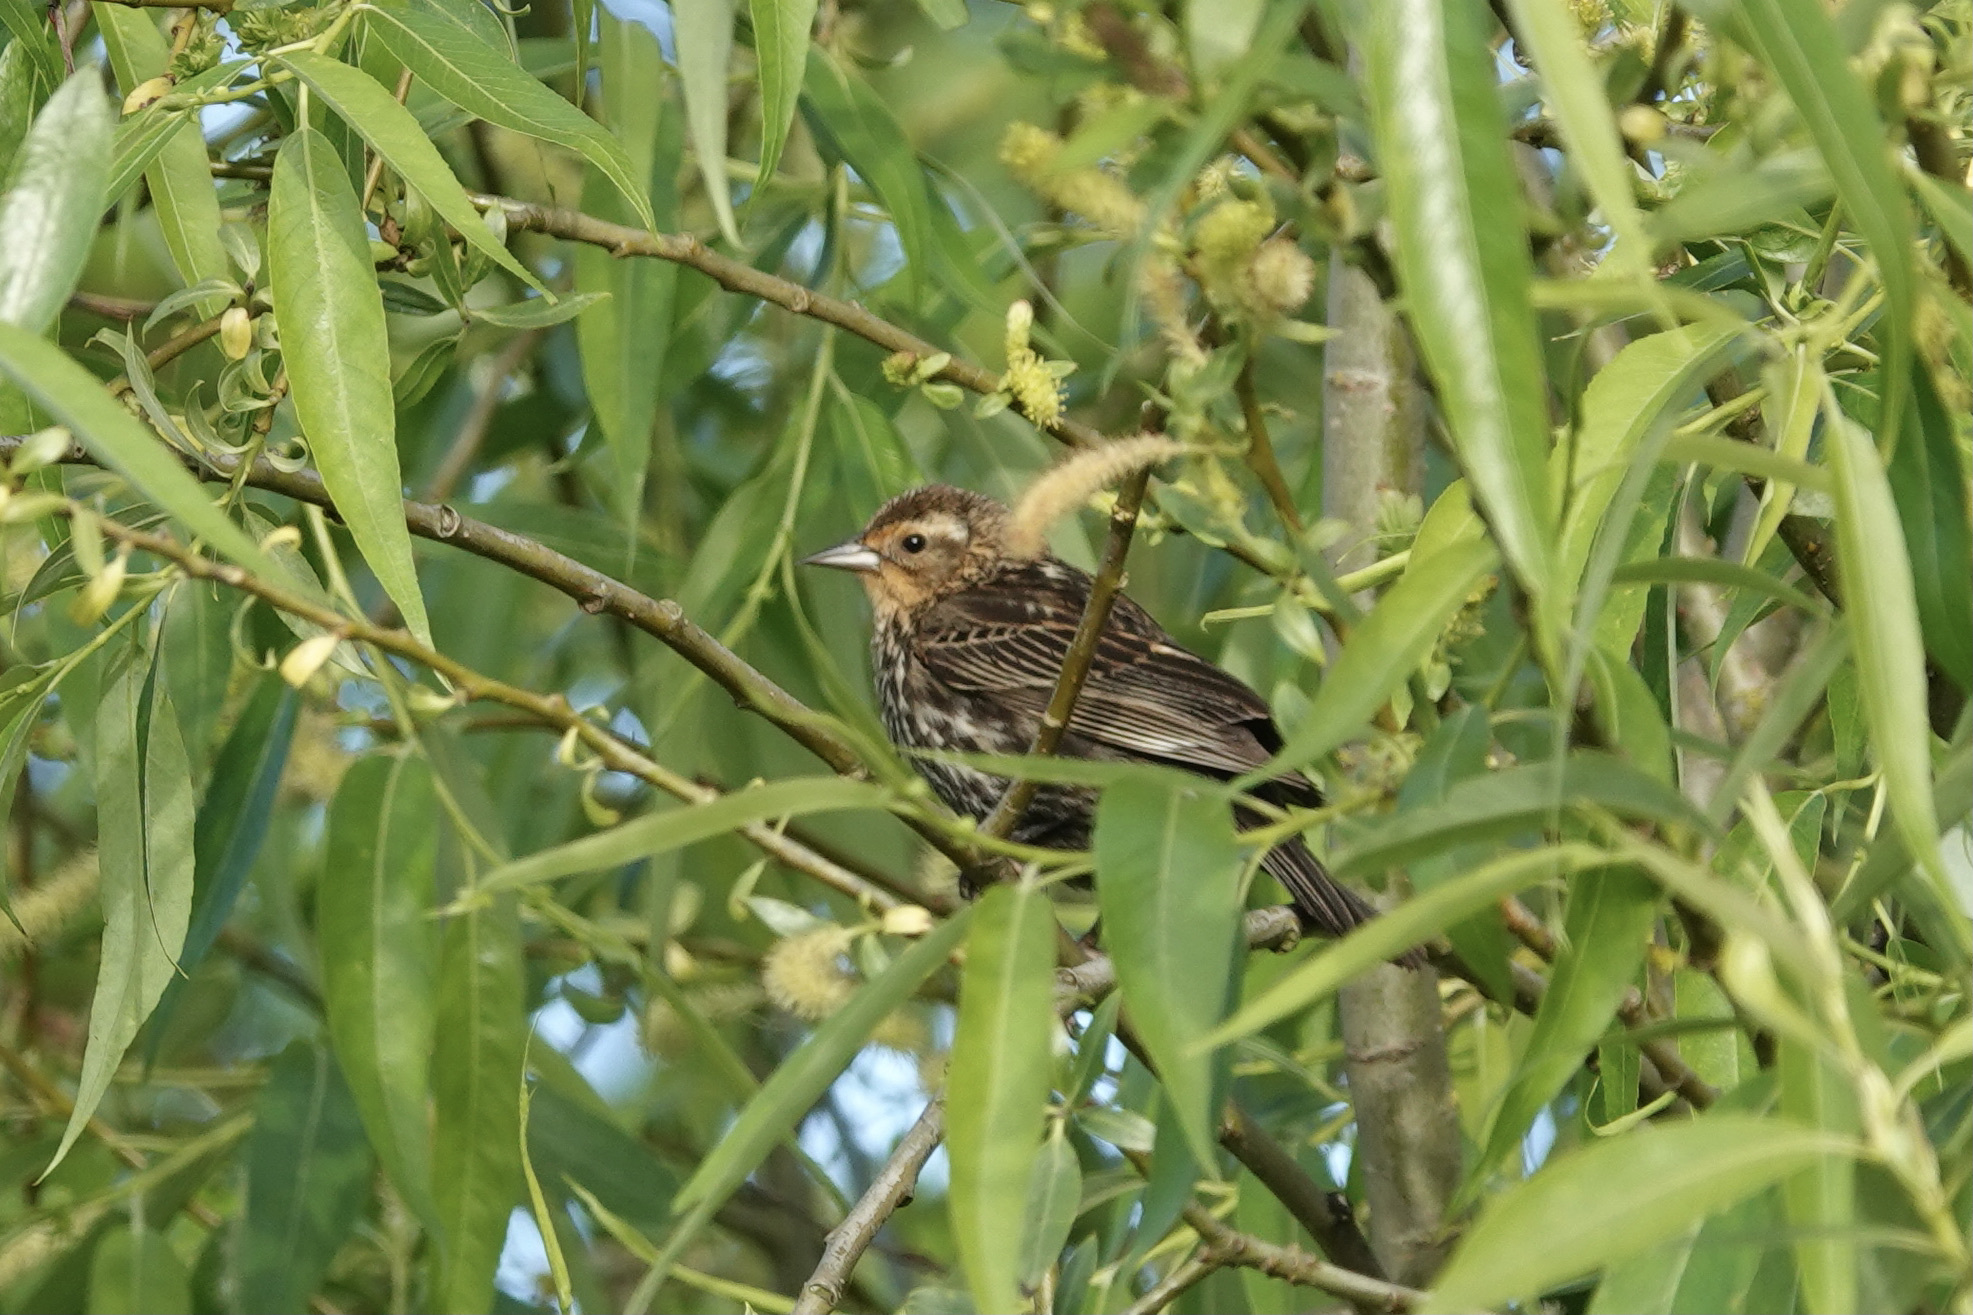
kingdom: Animalia
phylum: Chordata
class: Aves
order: Passeriformes
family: Icteridae
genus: Agelaius
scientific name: Agelaius phoeniceus
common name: Red-winged blackbird
